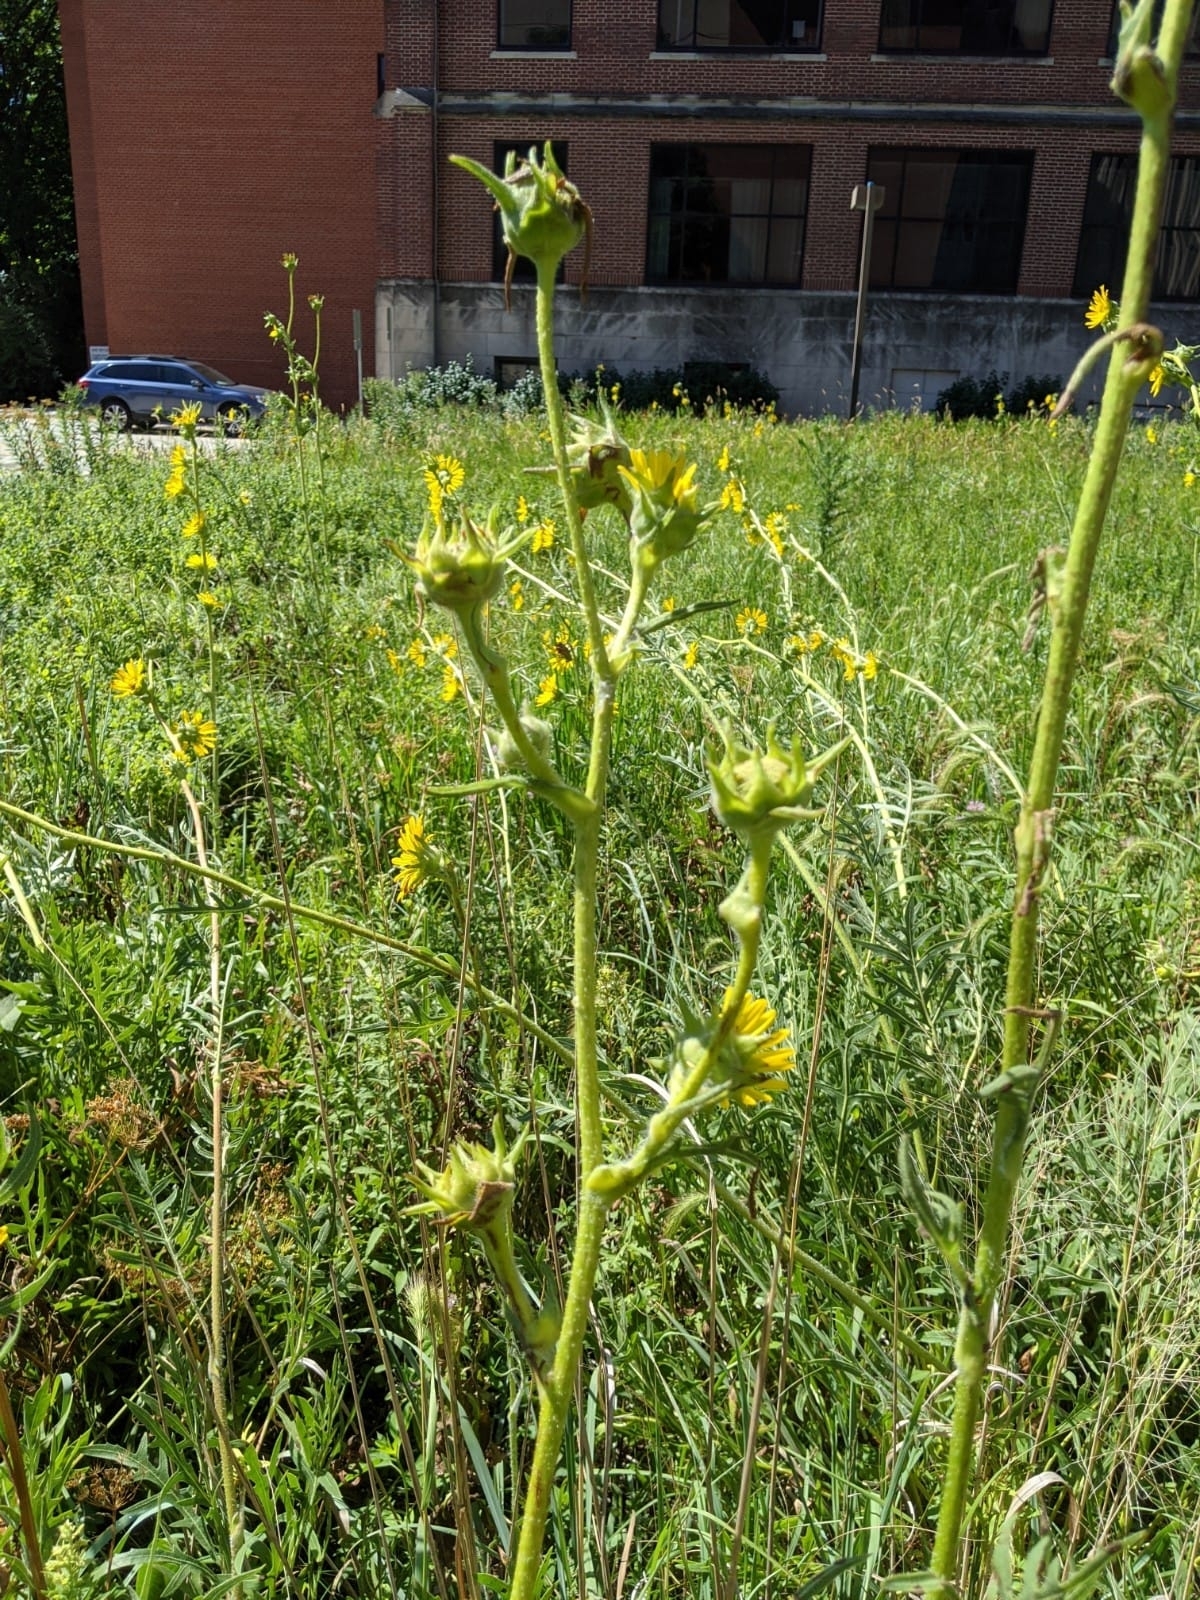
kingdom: Plantae
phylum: Tracheophyta
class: Magnoliopsida
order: Asterales
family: Asteraceae
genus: Silphium
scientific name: Silphium laciniatum
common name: Polarplant
